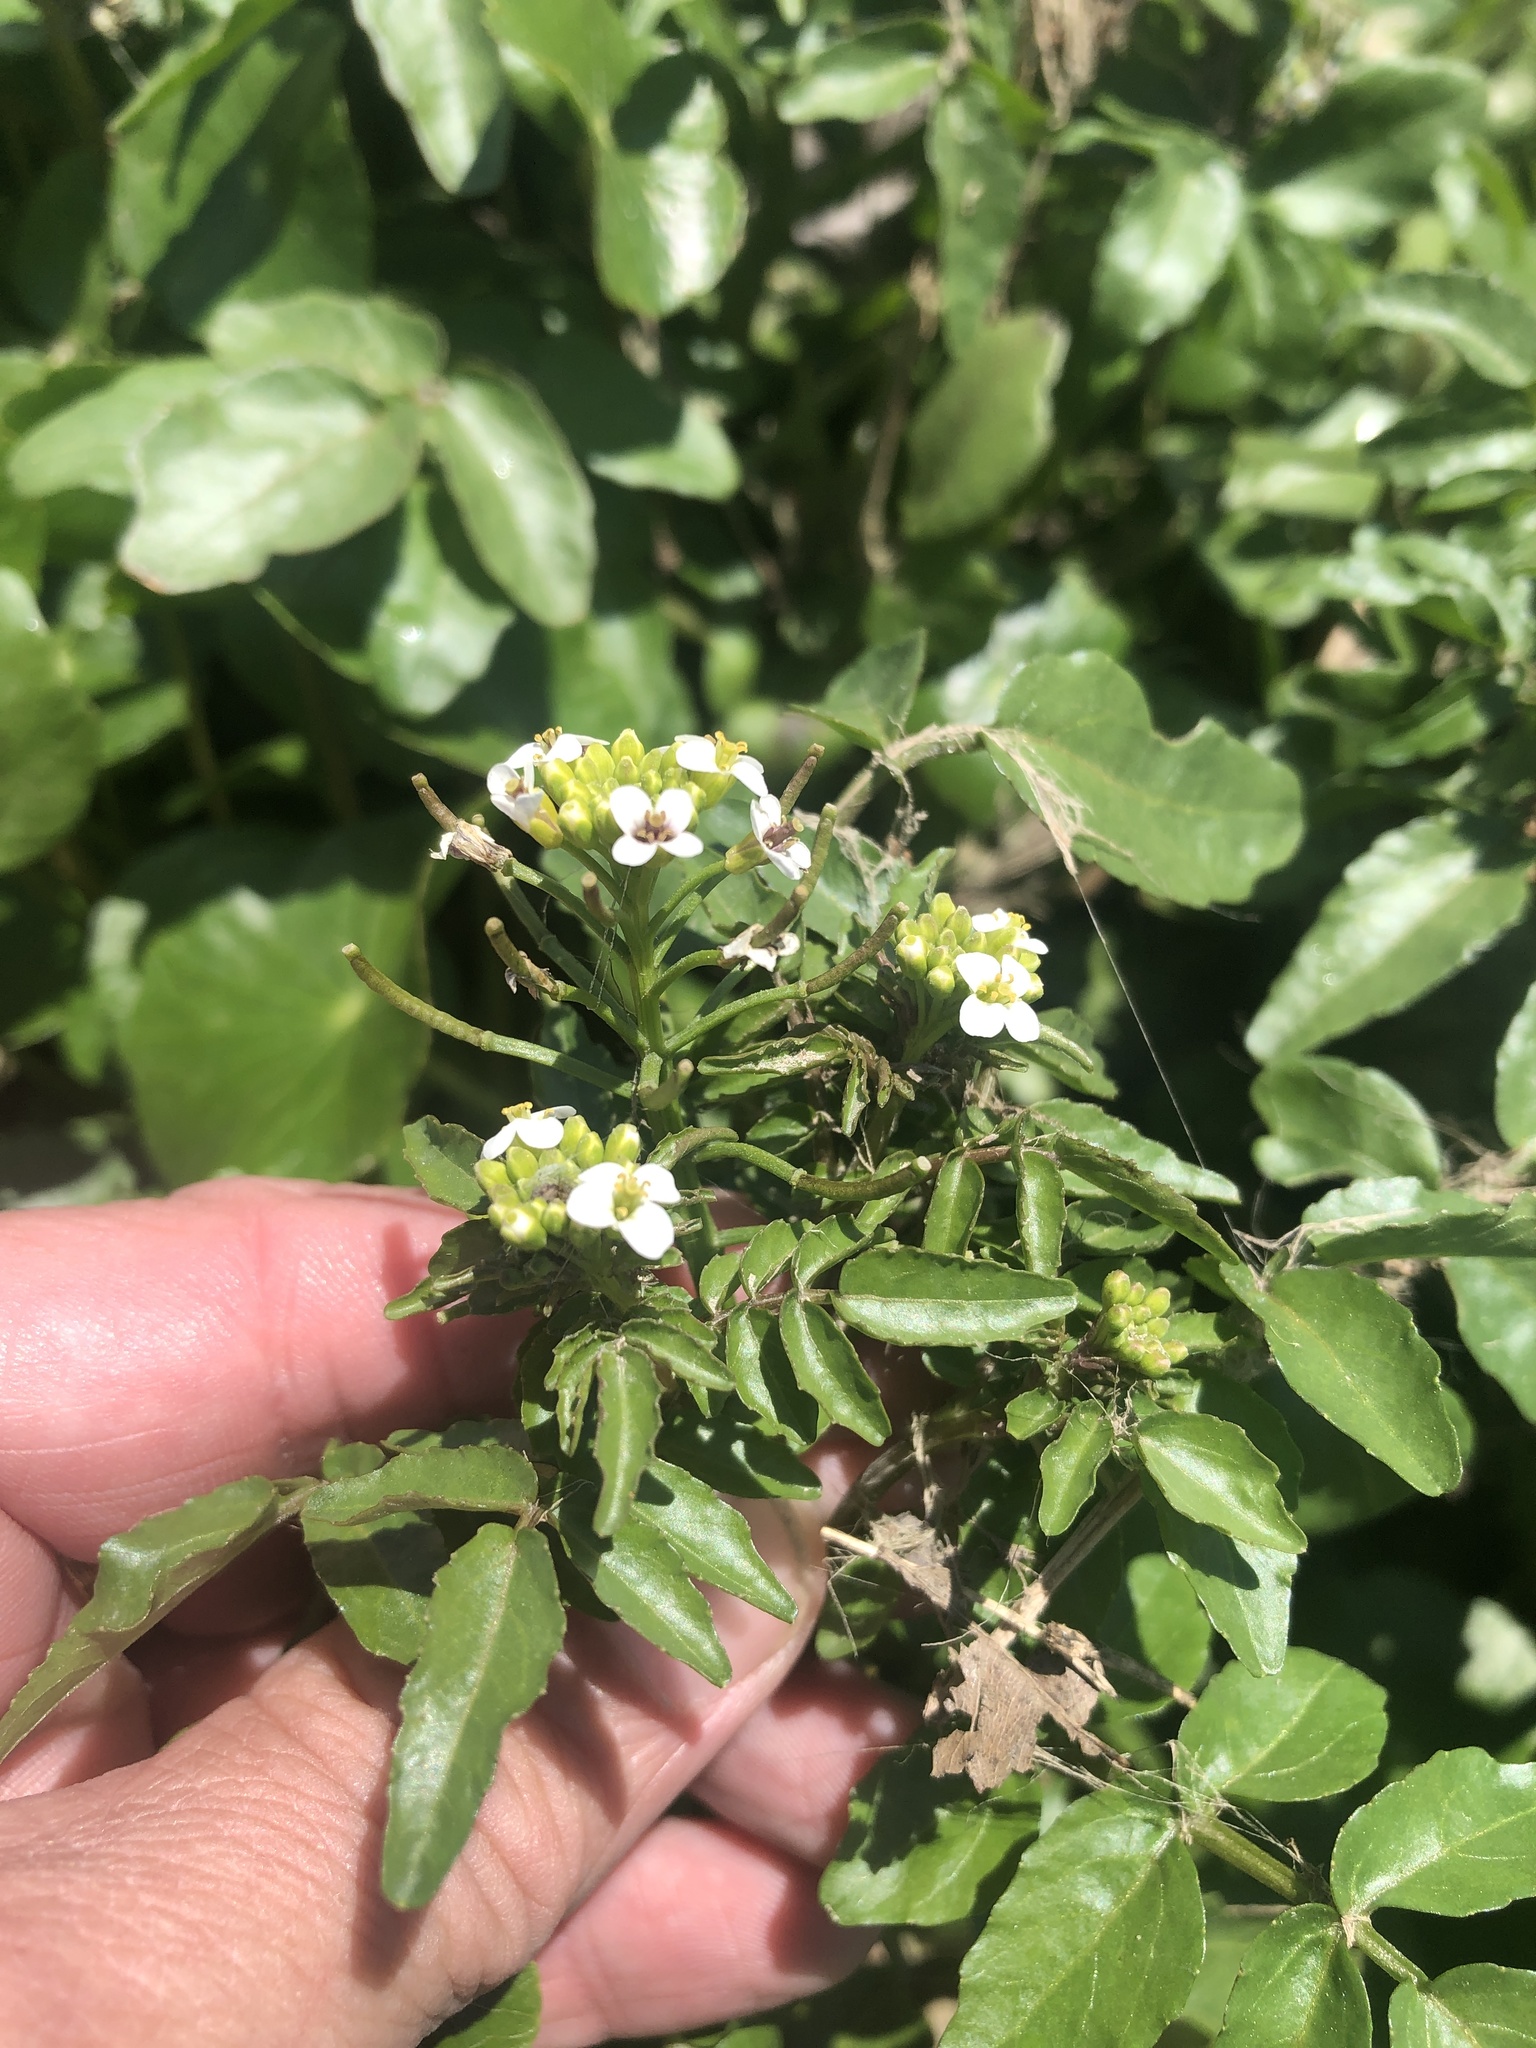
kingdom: Plantae
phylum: Tracheophyta
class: Magnoliopsida
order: Brassicales
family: Brassicaceae
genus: Nasturtium
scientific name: Nasturtium officinale
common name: Watercress
